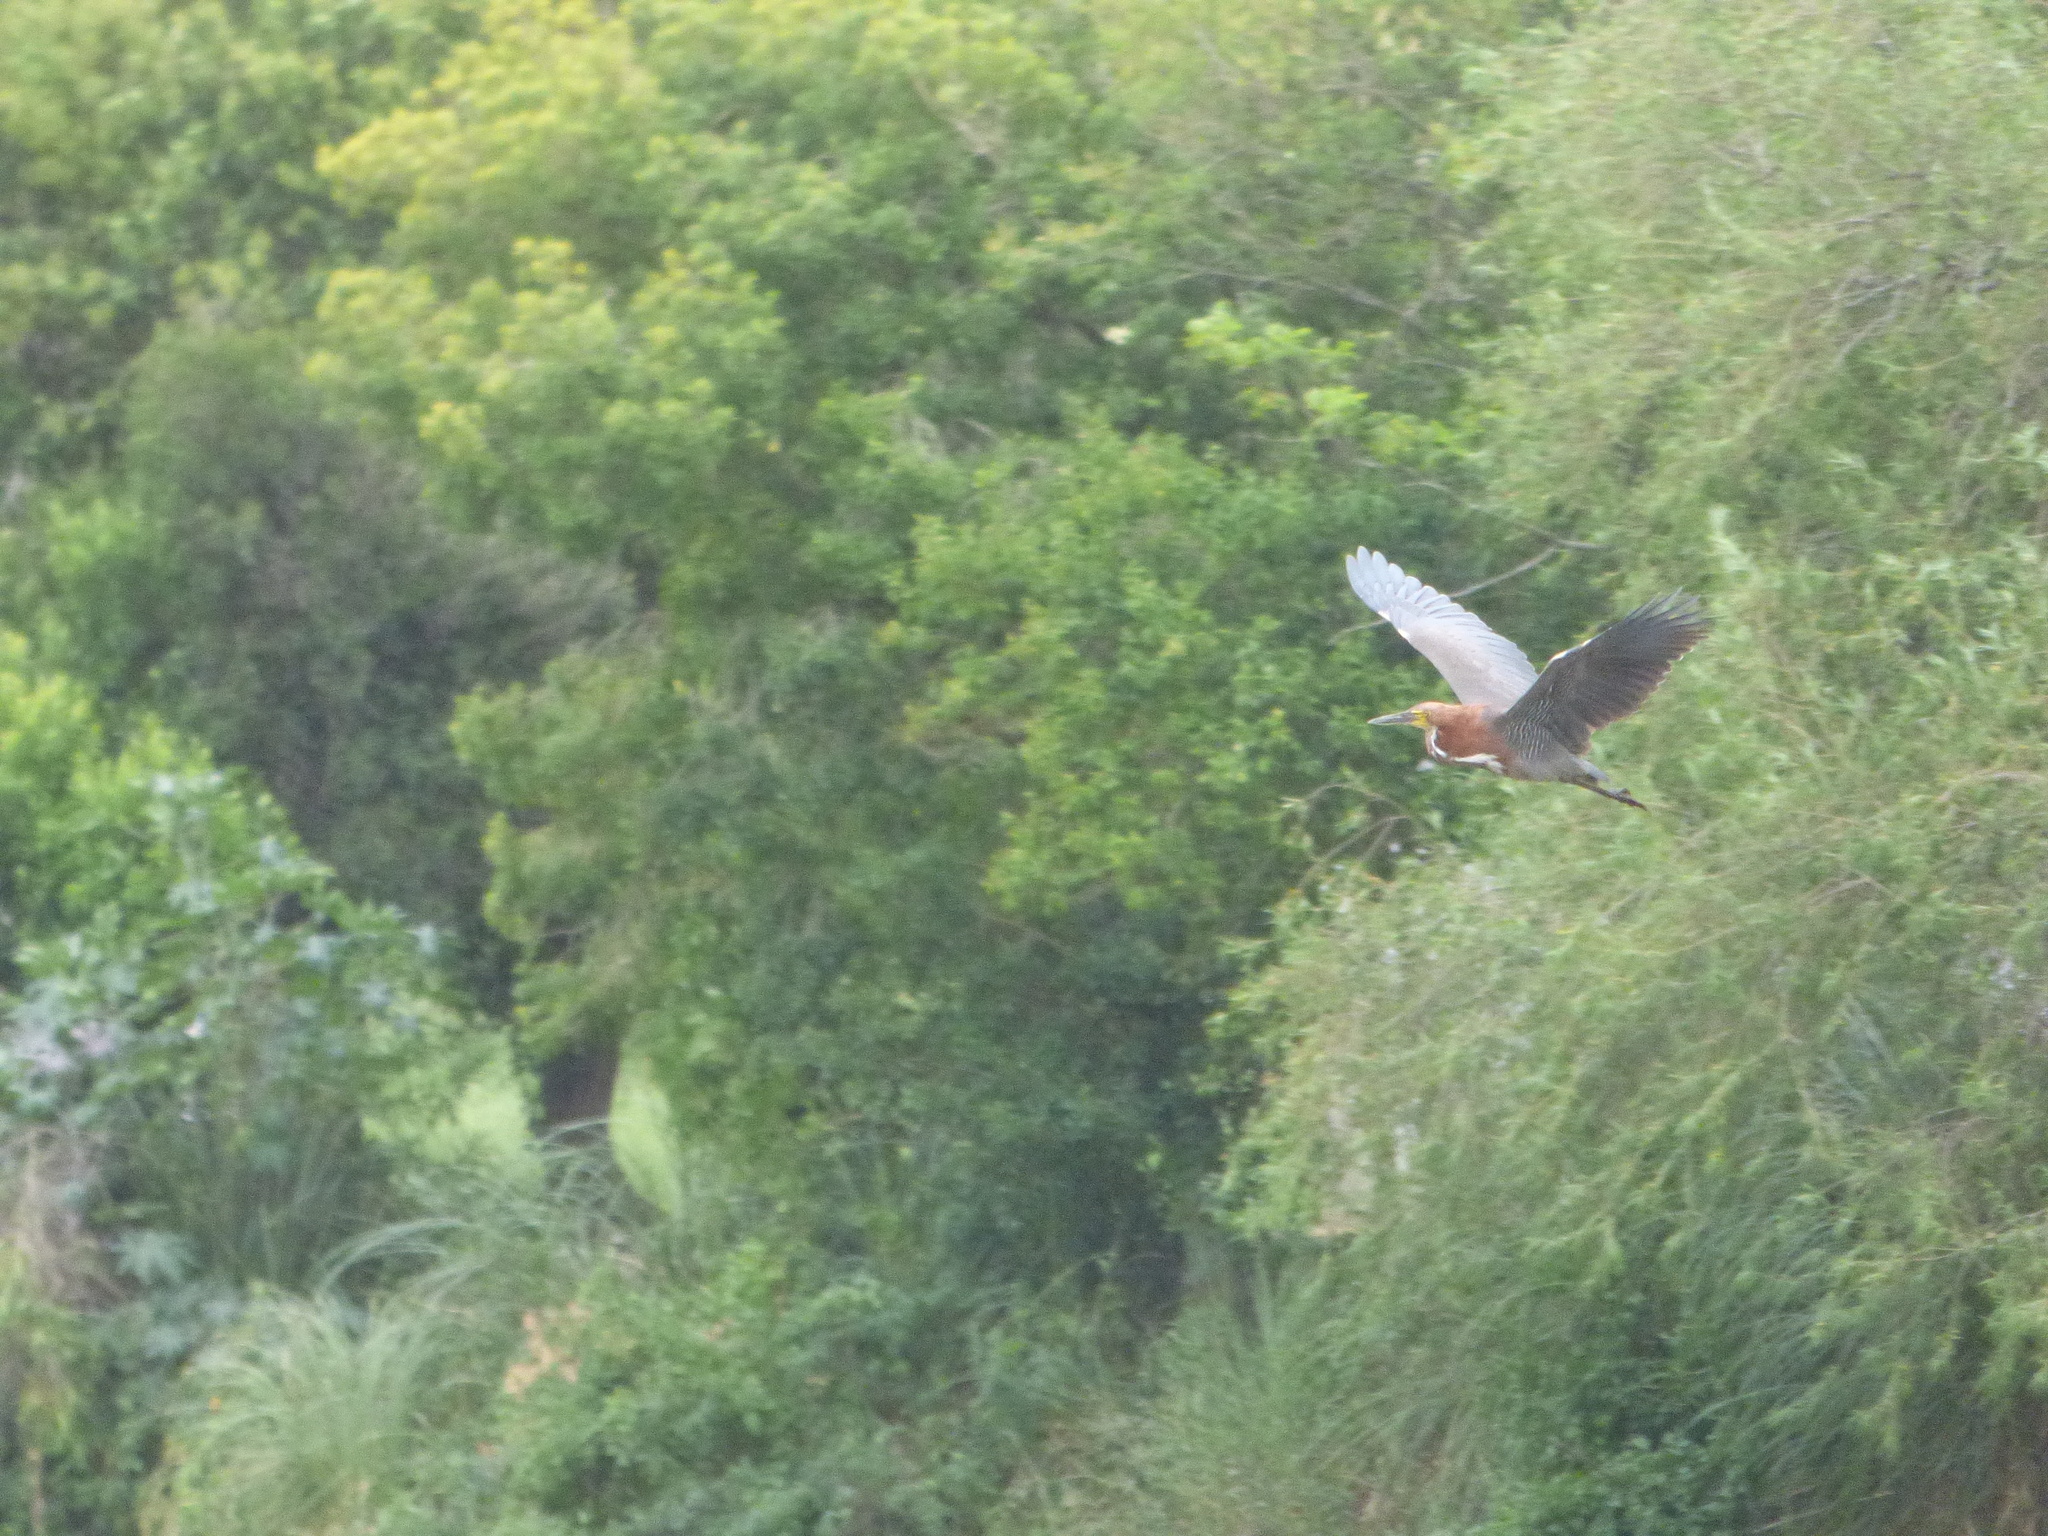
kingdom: Animalia
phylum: Chordata
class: Aves
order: Pelecaniformes
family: Ardeidae
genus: Tigrisoma
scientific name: Tigrisoma lineatum
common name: Rufescent tiger-heron
